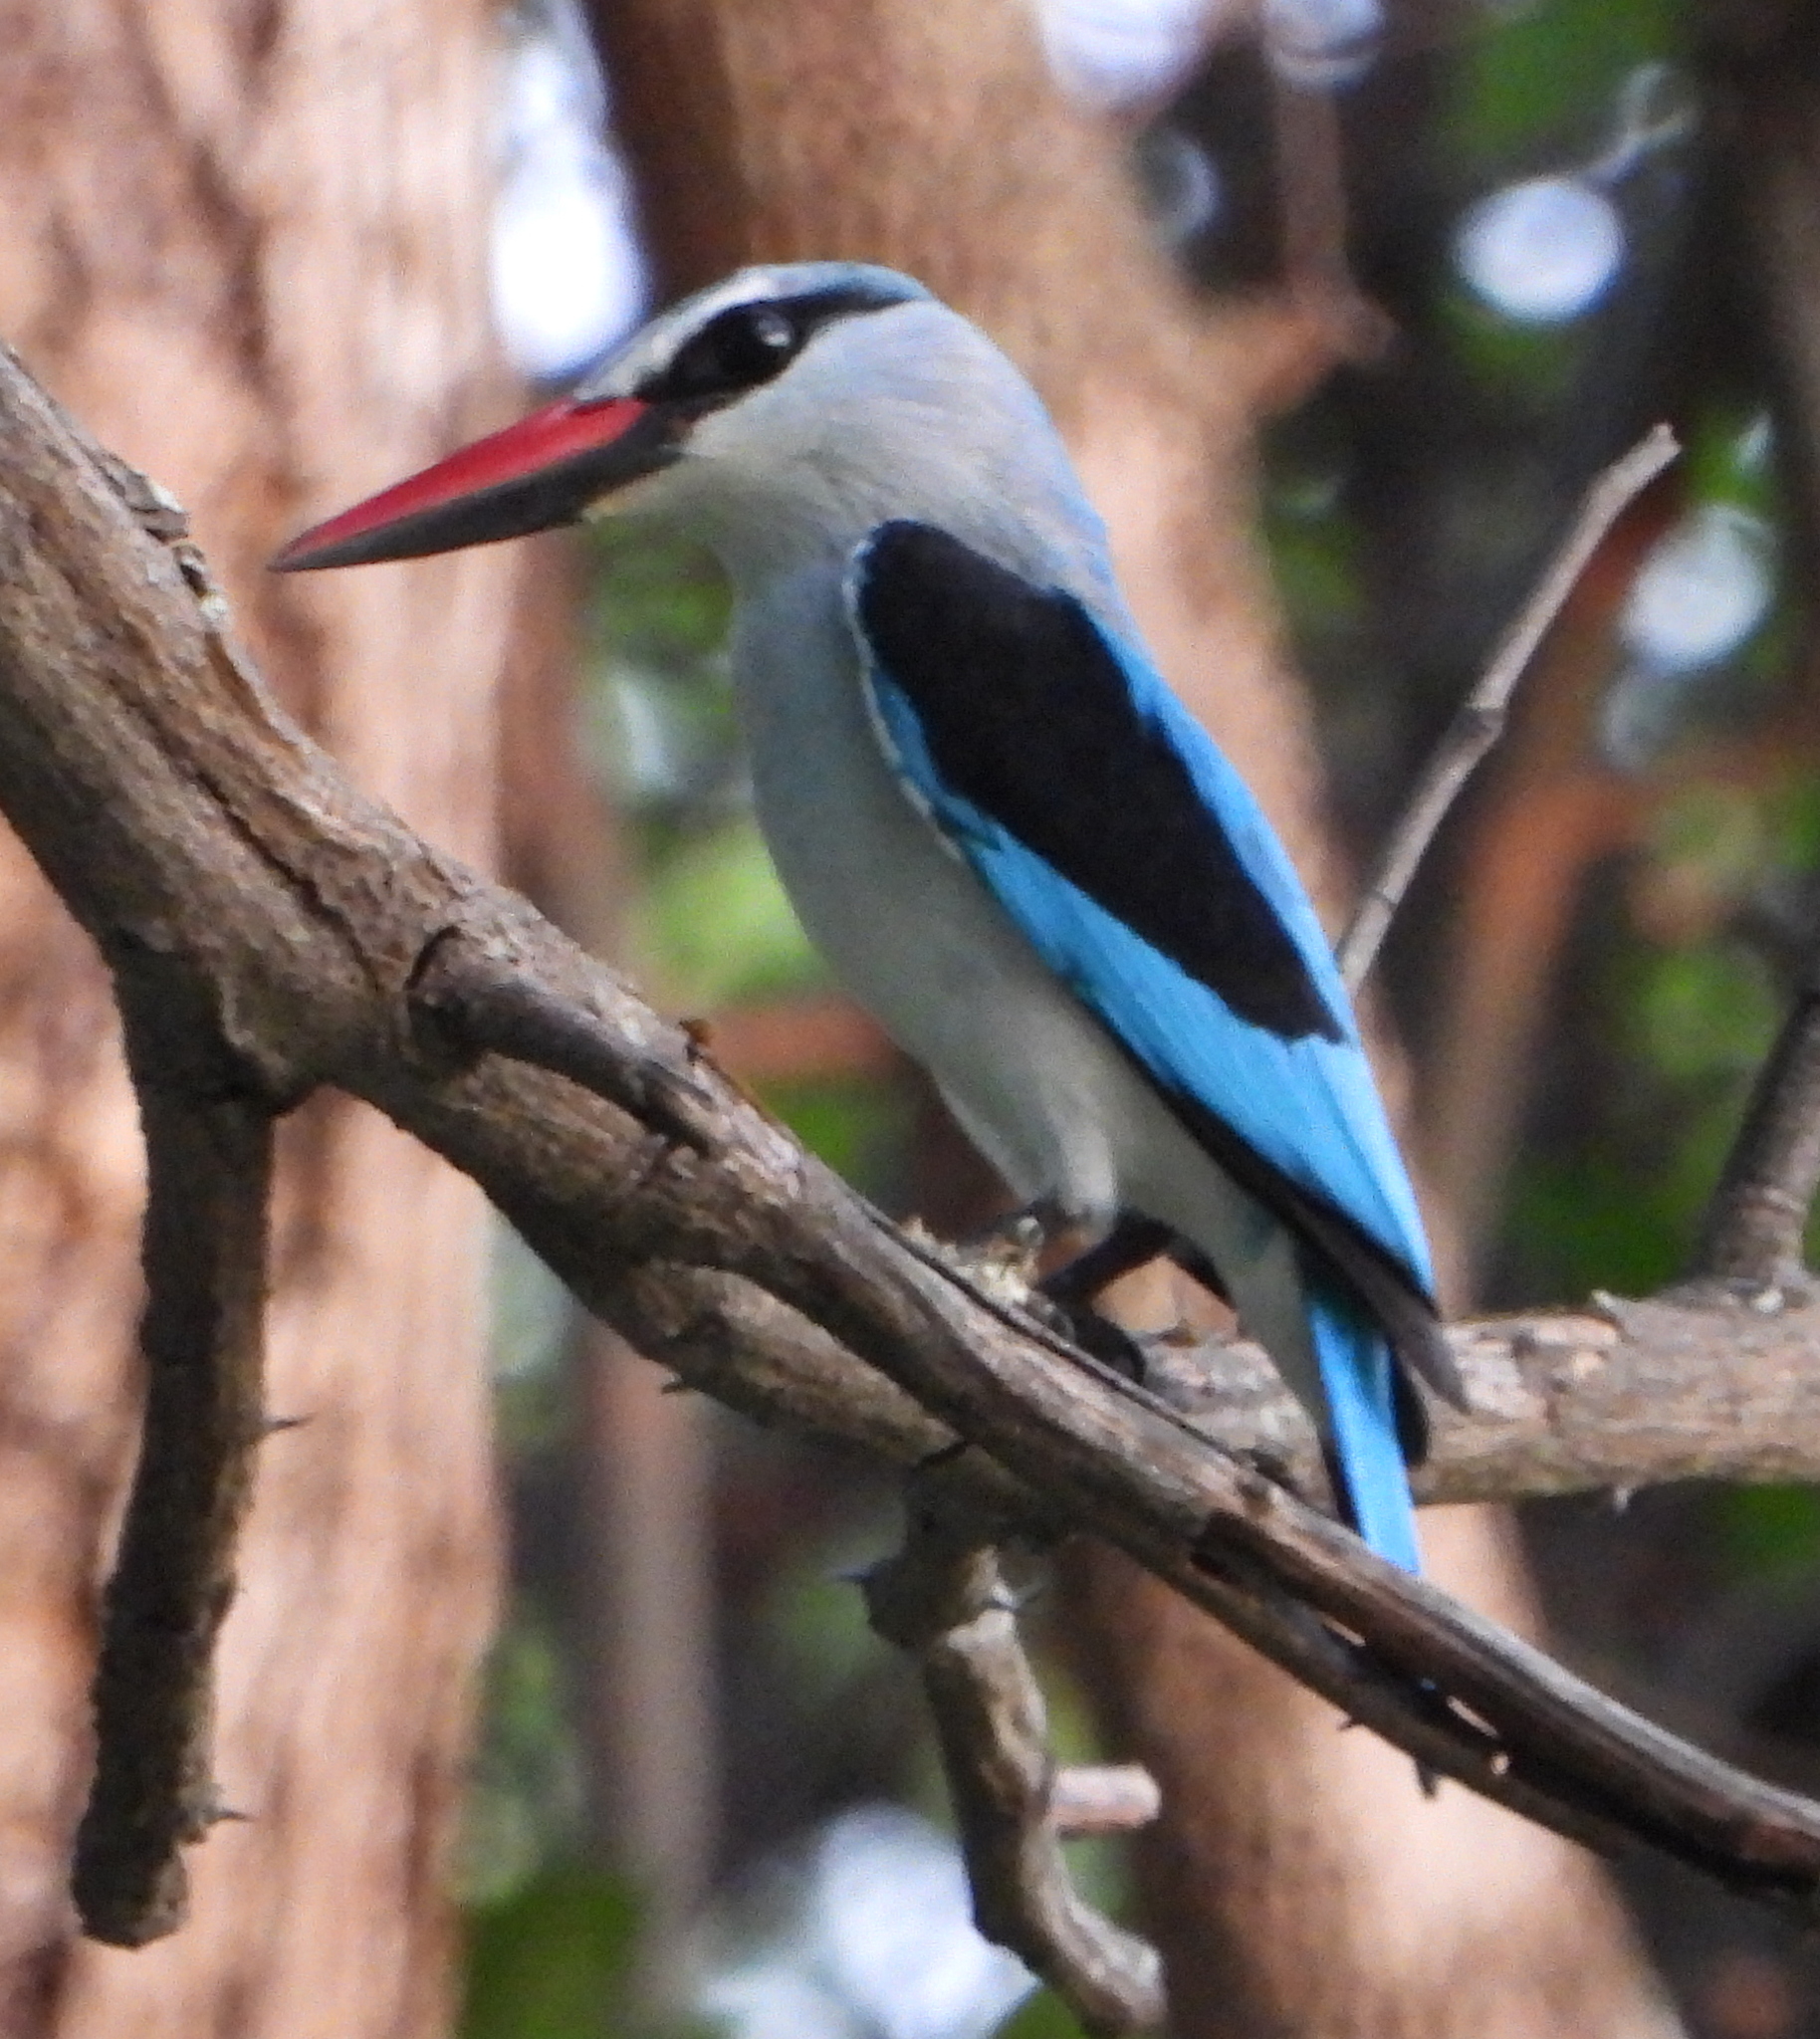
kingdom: Animalia
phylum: Chordata
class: Aves
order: Coraciiformes
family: Alcedinidae
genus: Halcyon
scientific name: Halcyon senegalensis
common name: Woodland kingfisher
